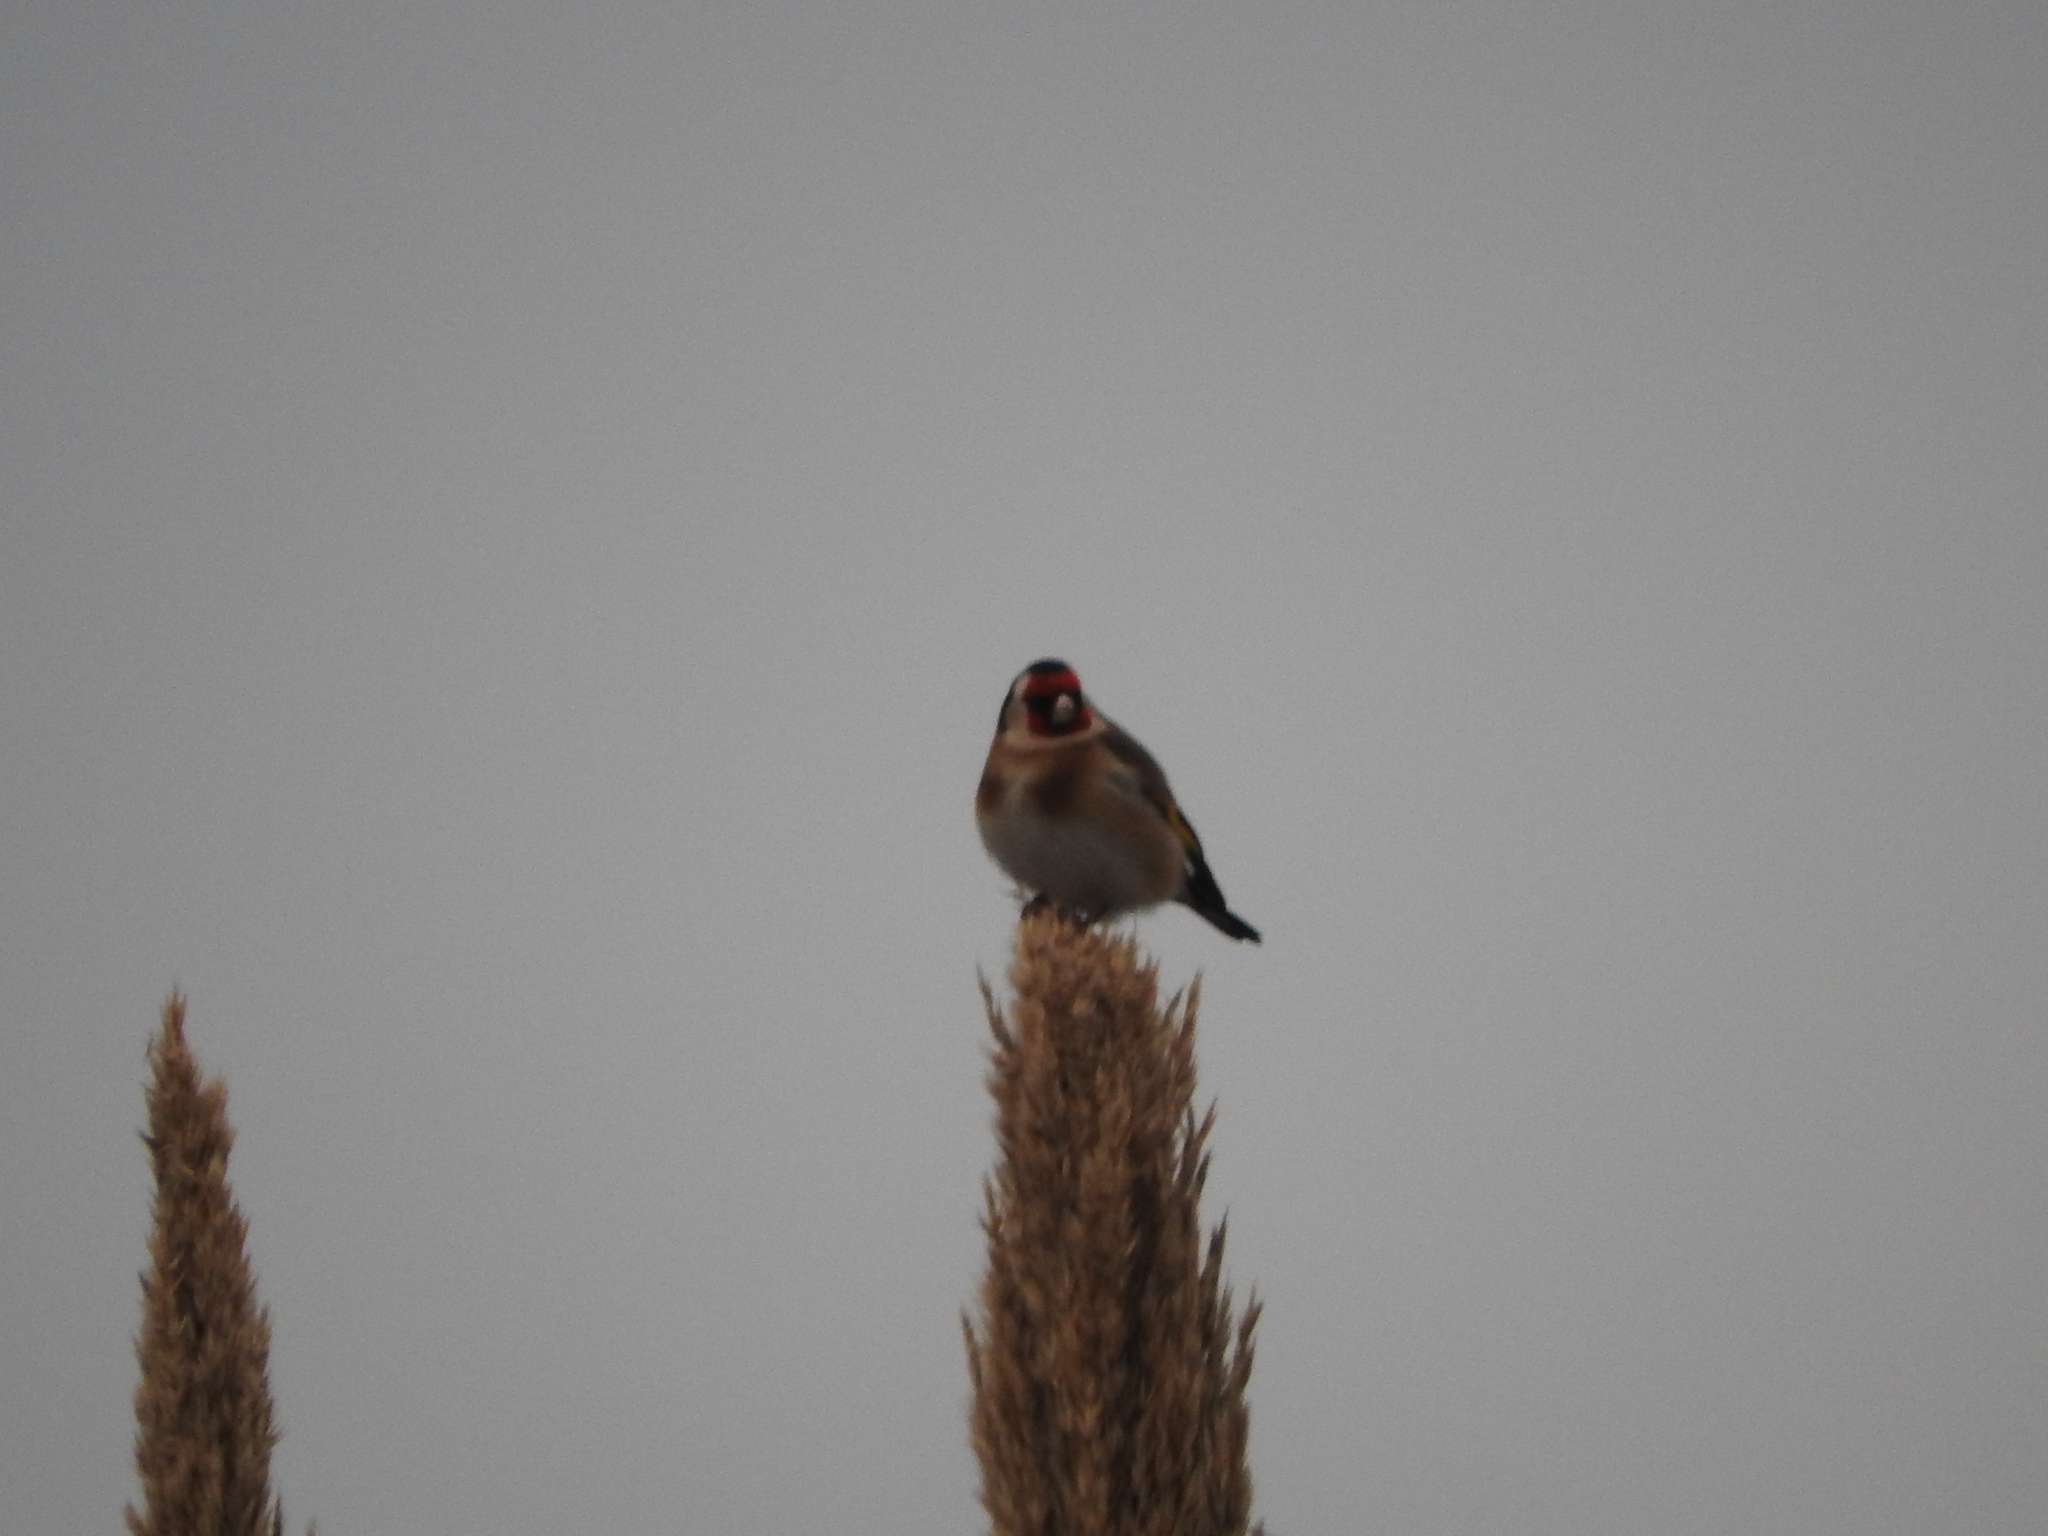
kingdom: Animalia
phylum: Chordata
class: Aves
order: Passeriformes
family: Fringillidae
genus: Carduelis
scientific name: Carduelis carduelis
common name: European goldfinch
